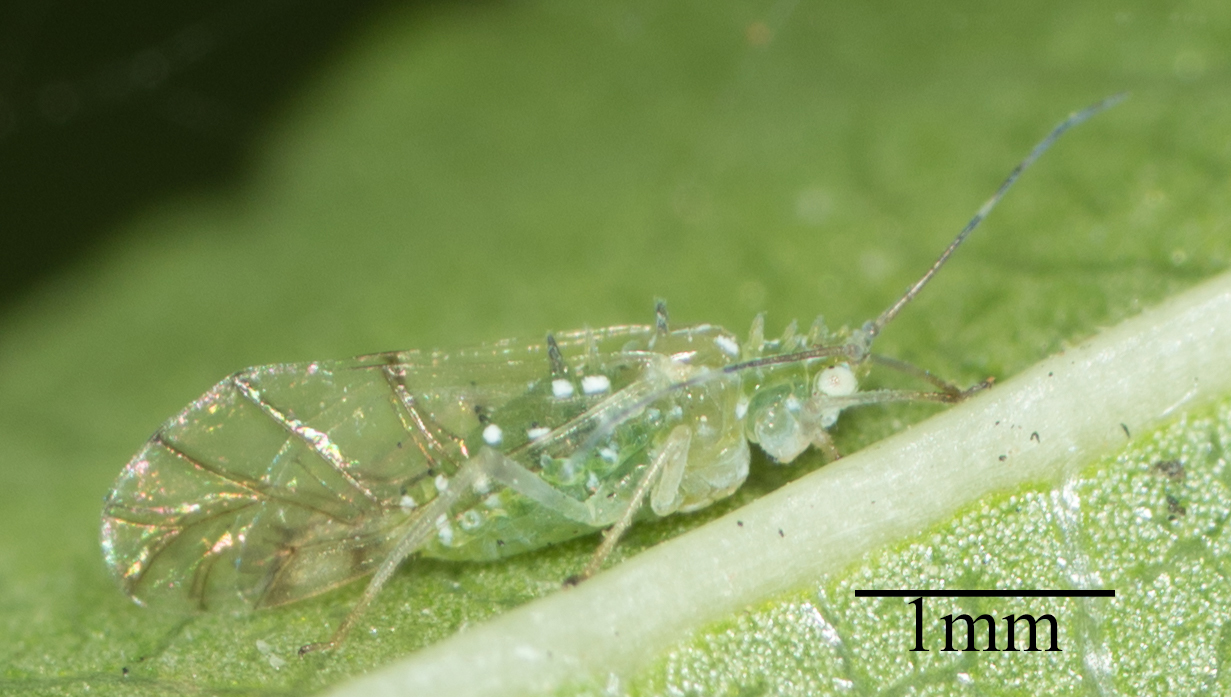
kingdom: Animalia
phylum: Arthropoda
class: Insecta
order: Hemiptera
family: Aphididae
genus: Tinocallis
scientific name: Tinocallis ulmiparvifoliae
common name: Aphid
